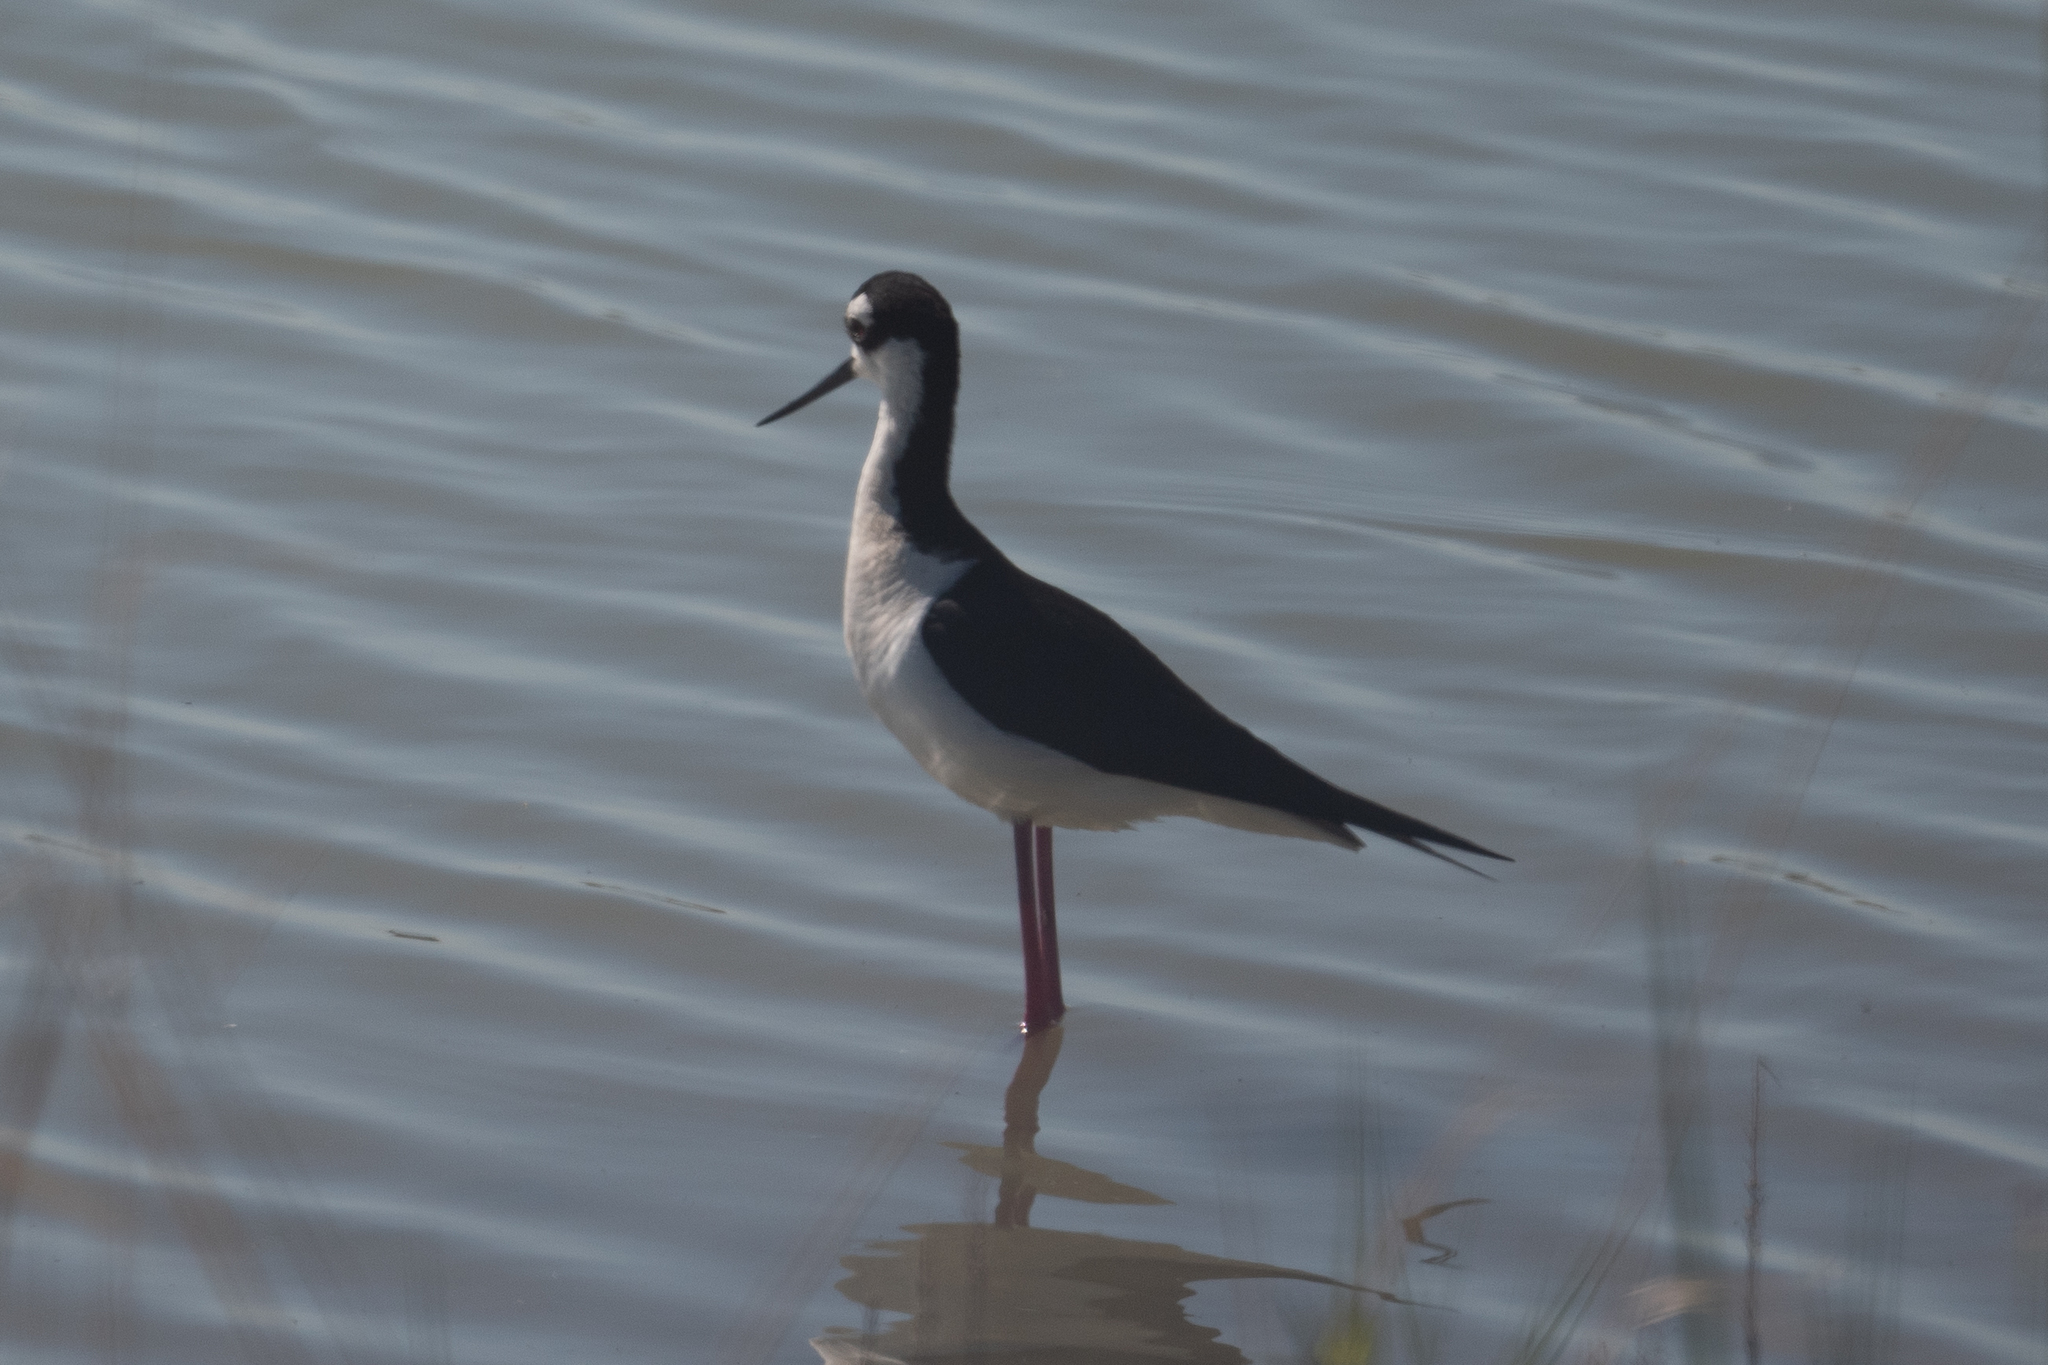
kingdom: Animalia
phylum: Chordata
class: Aves
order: Charadriiformes
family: Recurvirostridae
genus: Himantopus
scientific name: Himantopus mexicanus
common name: Black-necked stilt
